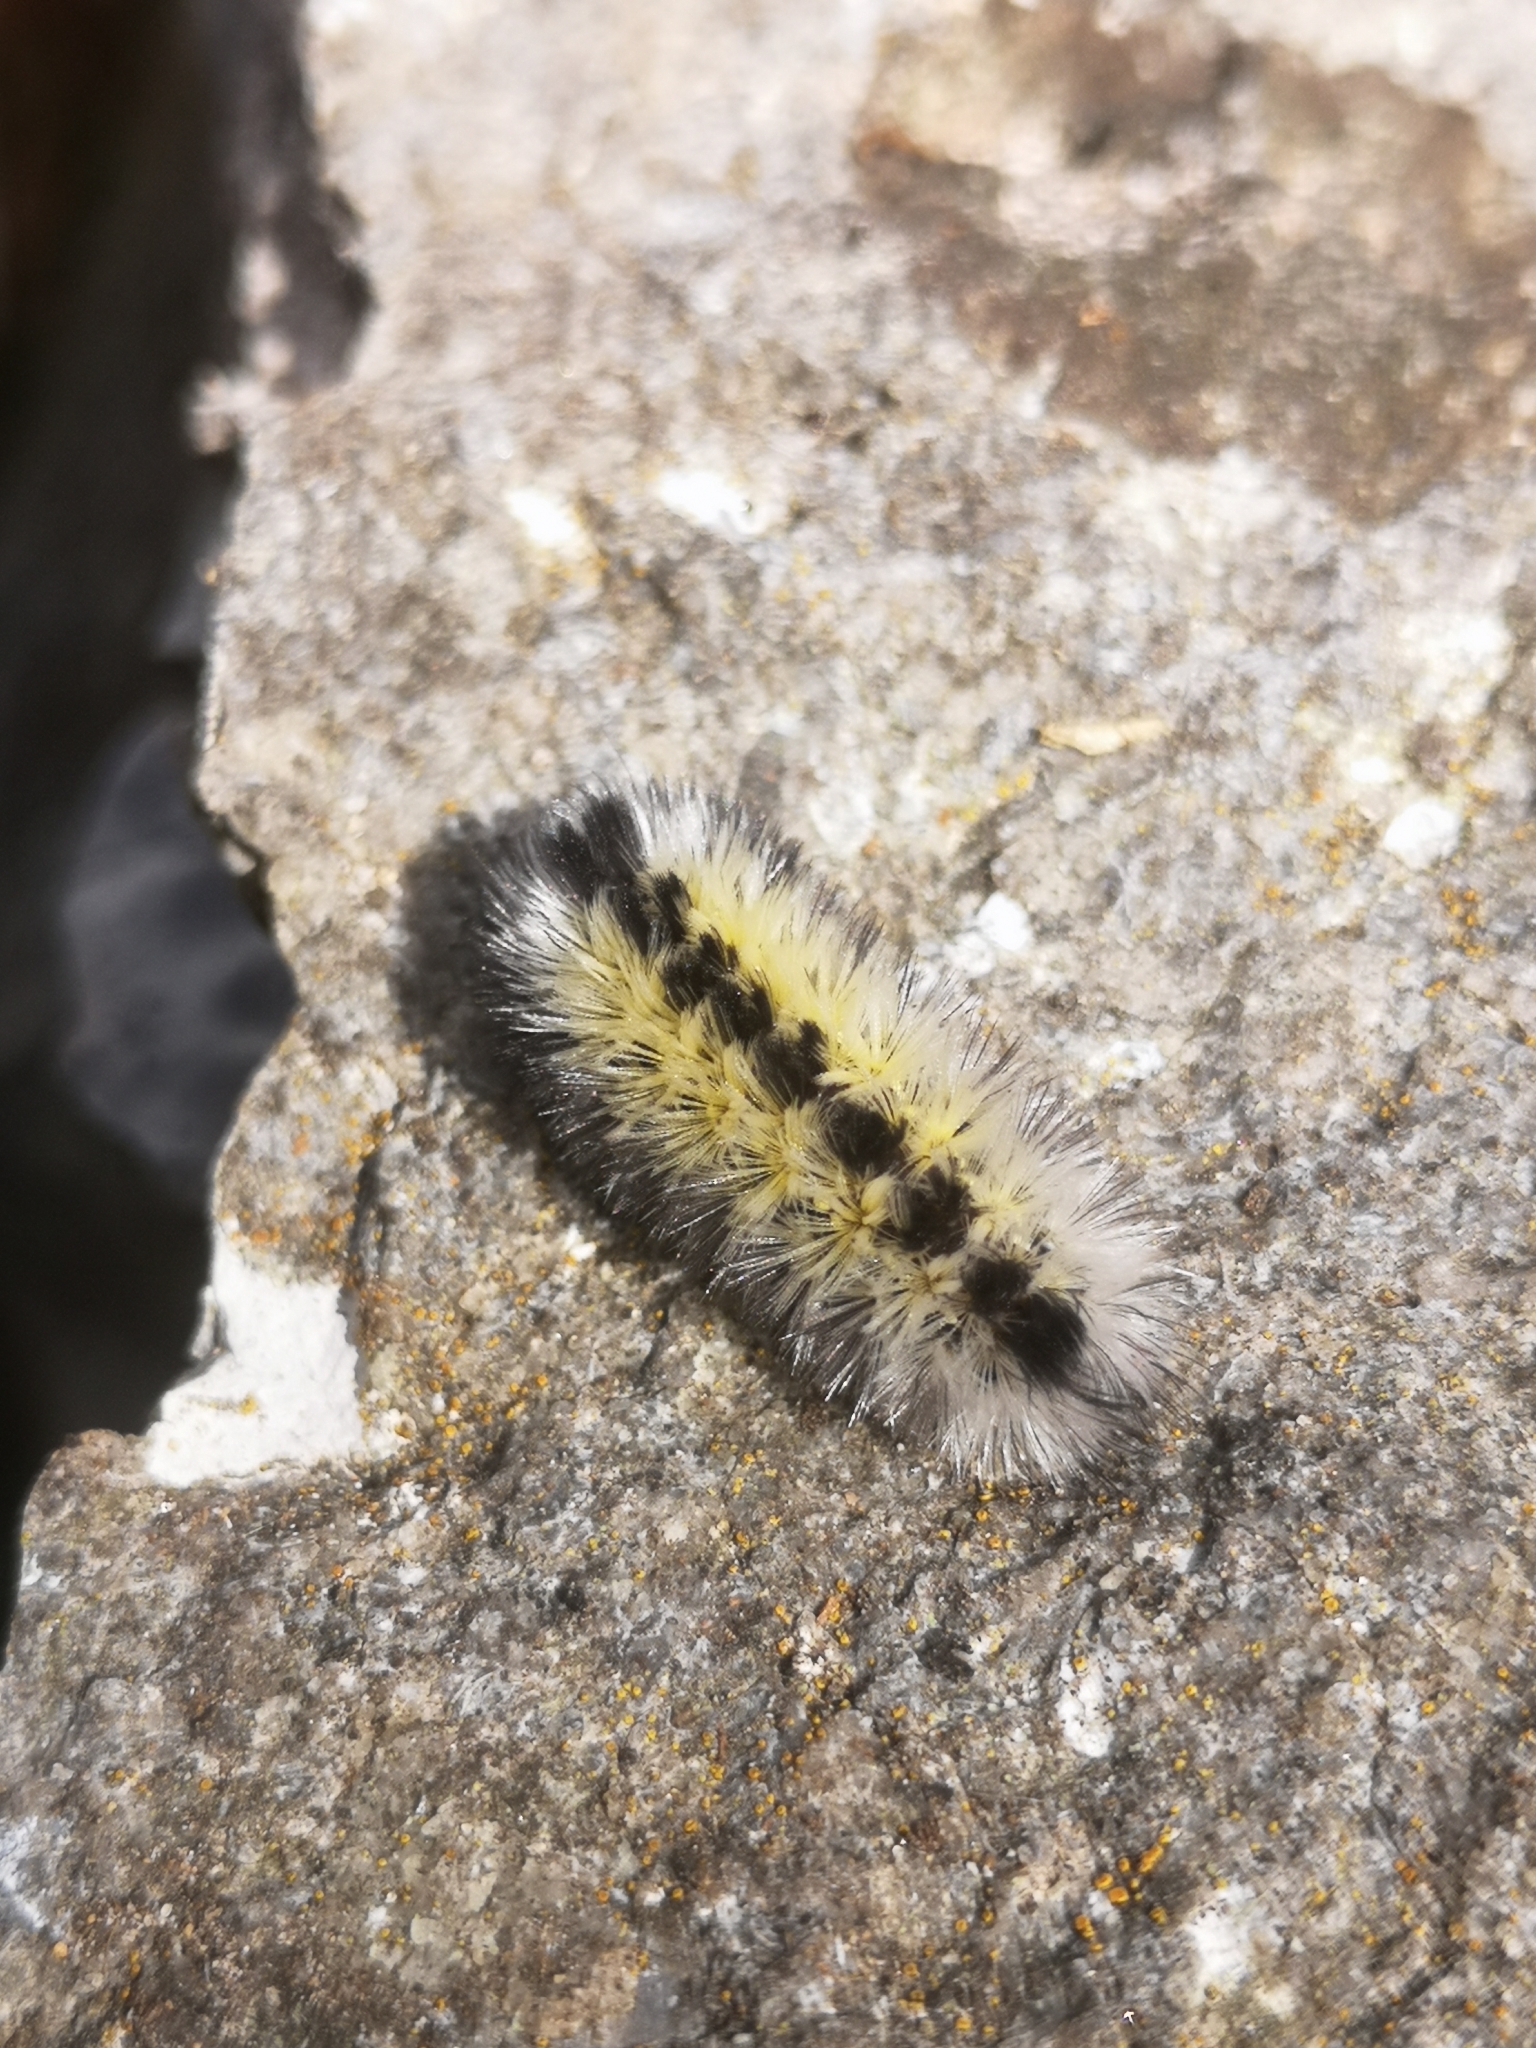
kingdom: Animalia
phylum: Arthropoda
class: Insecta
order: Lepidoptera
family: Erebidae
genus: Ctenucha
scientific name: Ctenucha virginica
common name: Virginia ctenucha moth
